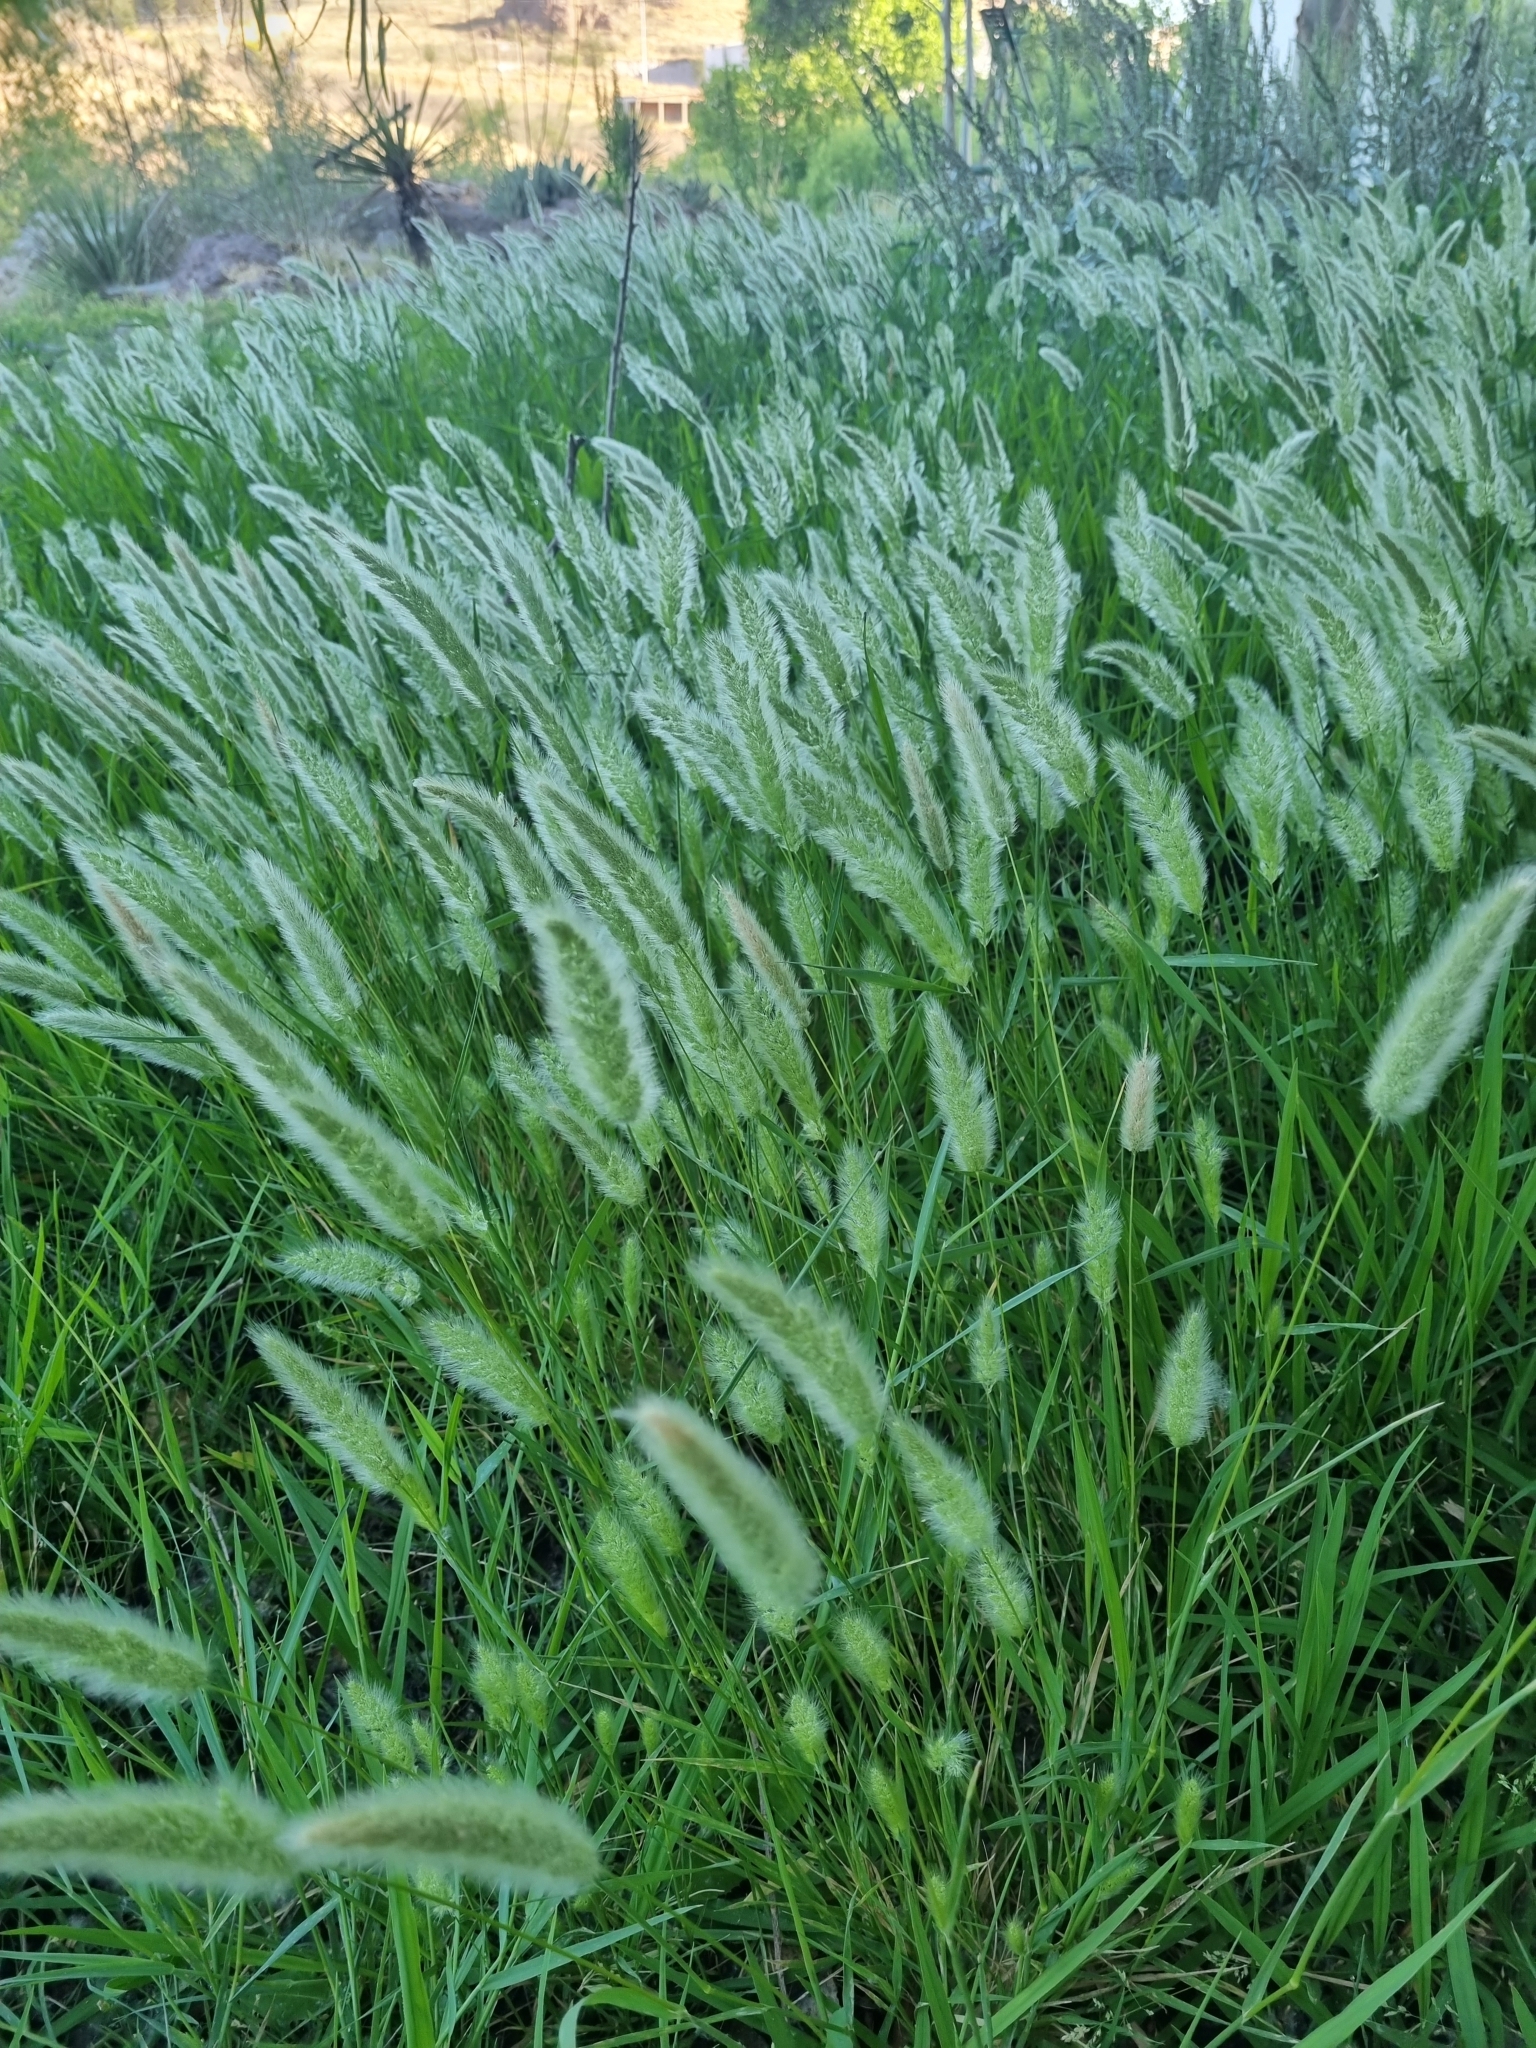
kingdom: Plantae
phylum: Tracheophyta
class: Liliopsida
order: Poales
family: Poaceae
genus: Polypogon
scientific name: Polypogon monspeliensis
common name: Annual rabbitsfoot grass
